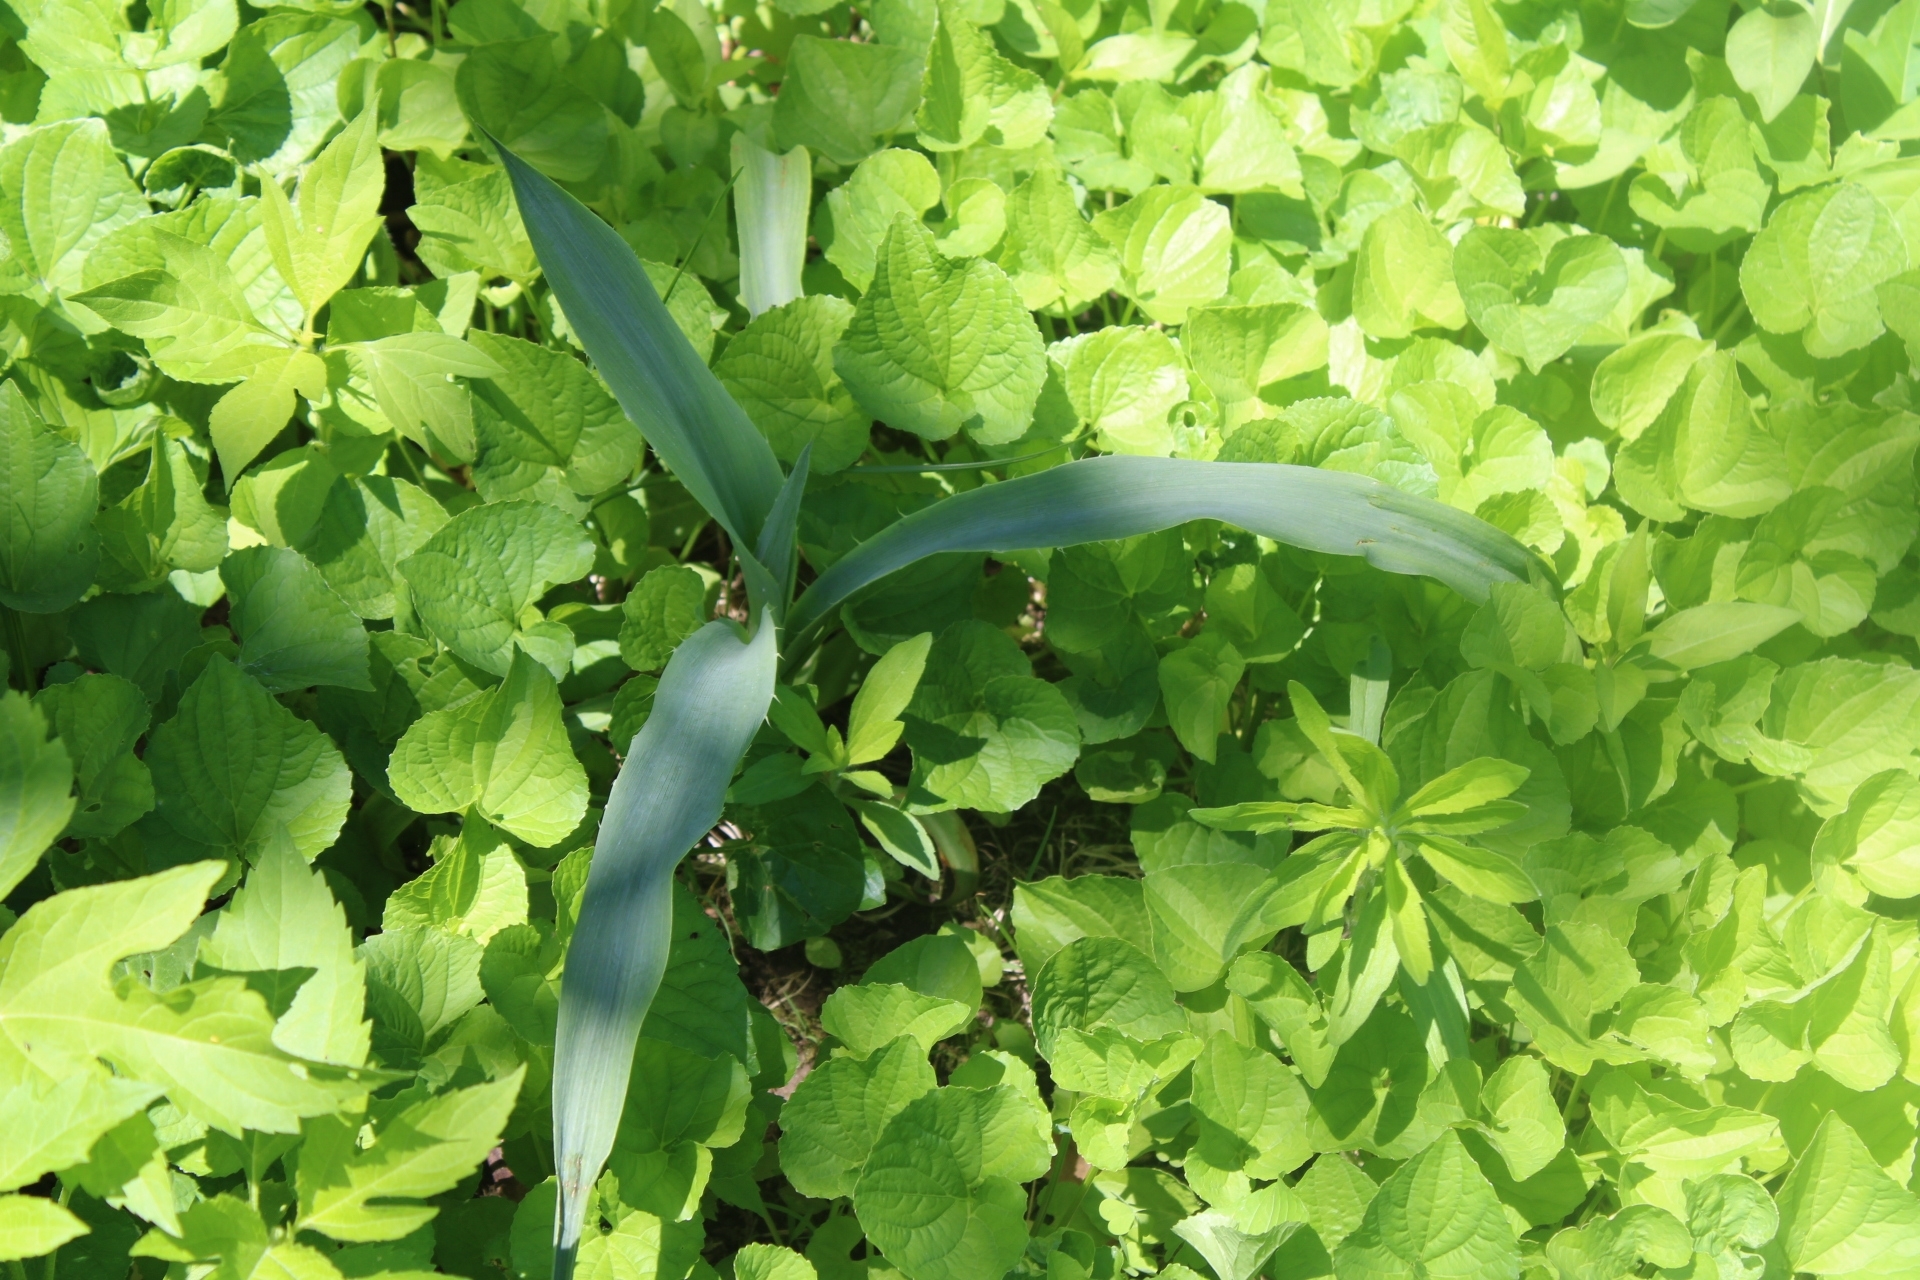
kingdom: Plantae
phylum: Tracheophyta
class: Magnoliopsida
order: Apiales
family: Apiaceae
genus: Eryngium
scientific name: Eryngium yuccifolium
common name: Button eryngo
